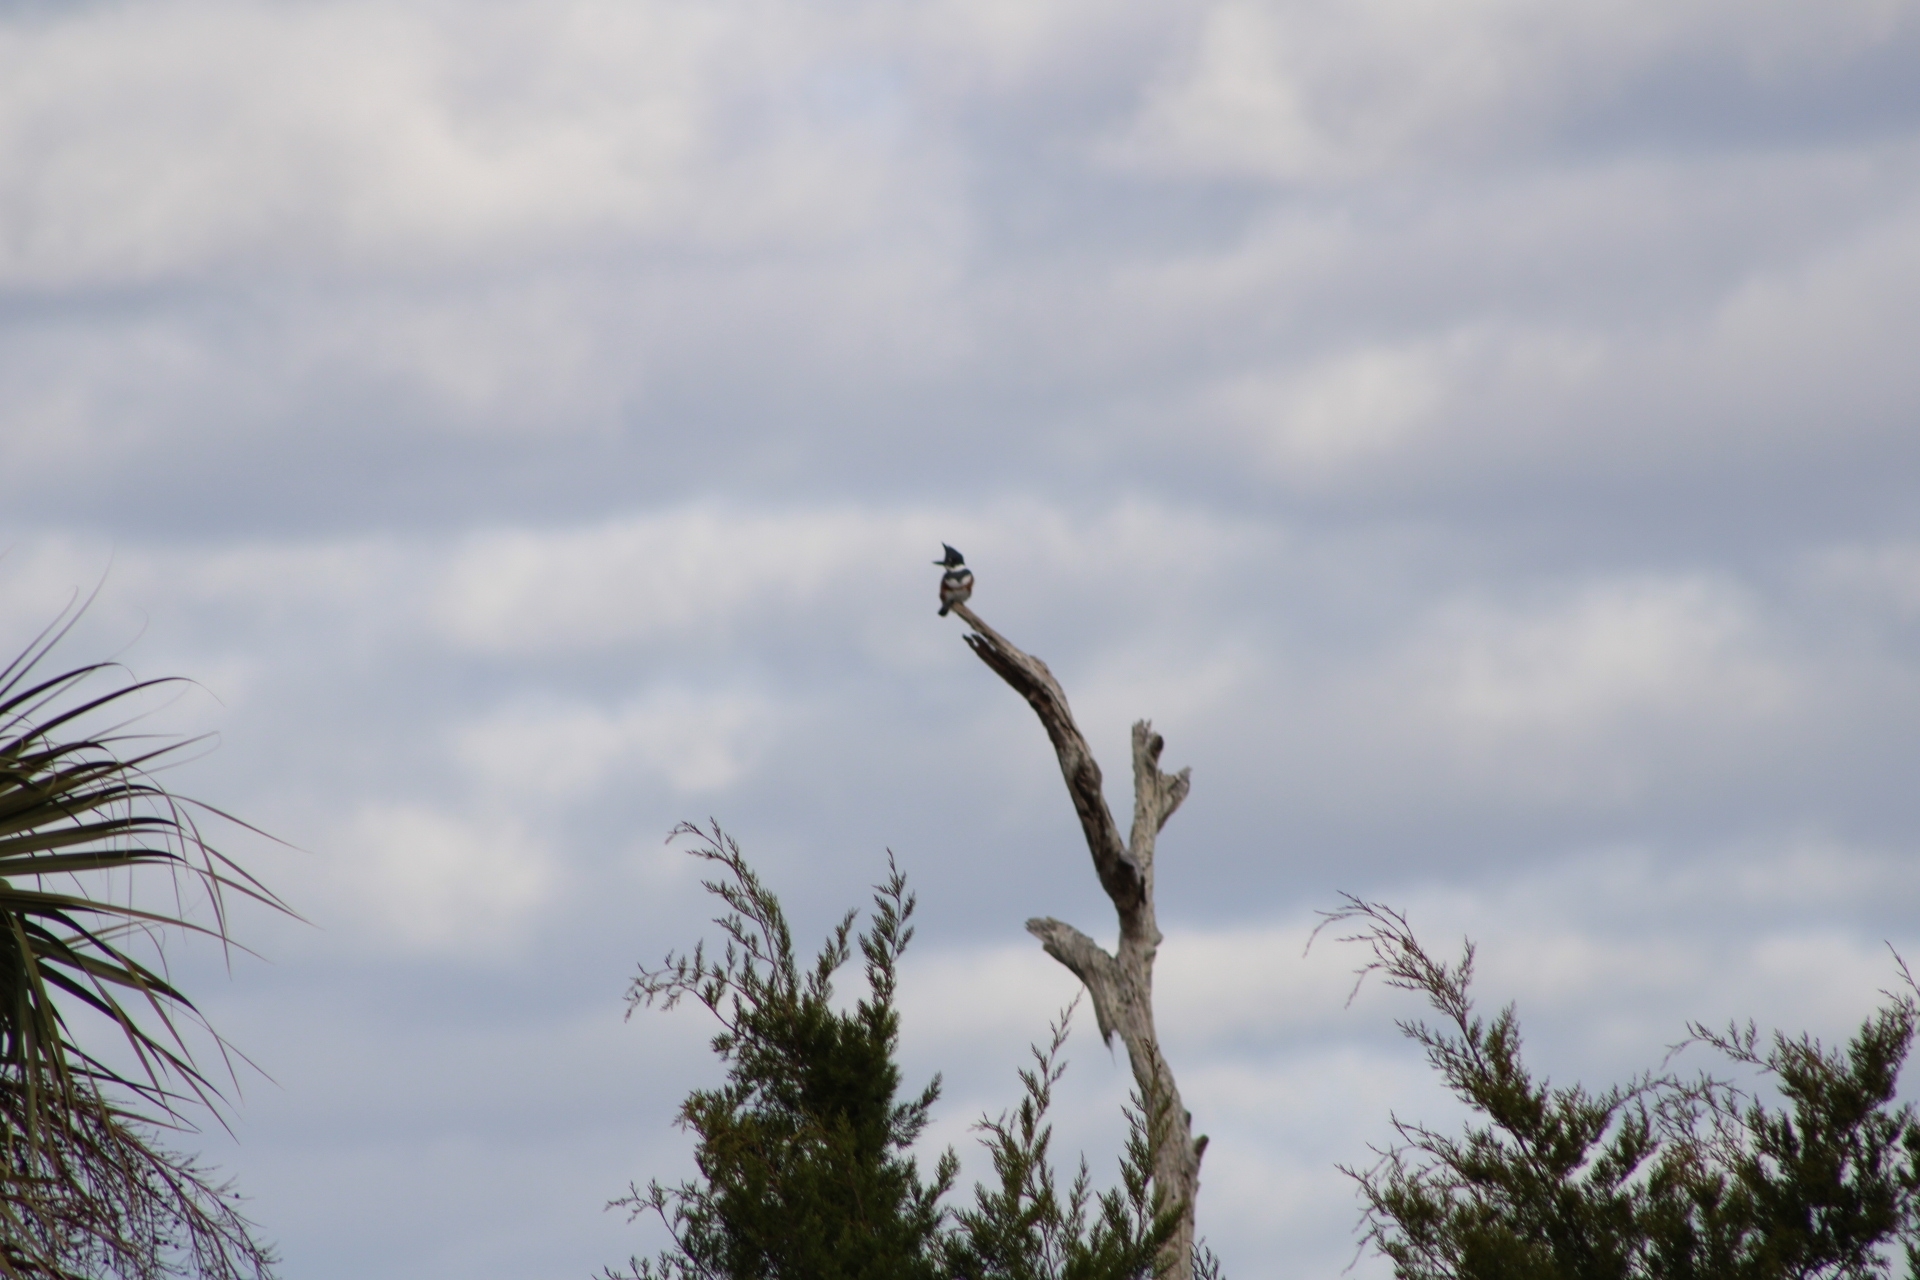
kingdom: Animalia
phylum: Chordata
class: Aves
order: Coraciiformes
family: Alcedinidae
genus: Megaceryle
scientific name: Megaceryle alcyon
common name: Belted kingfisher
